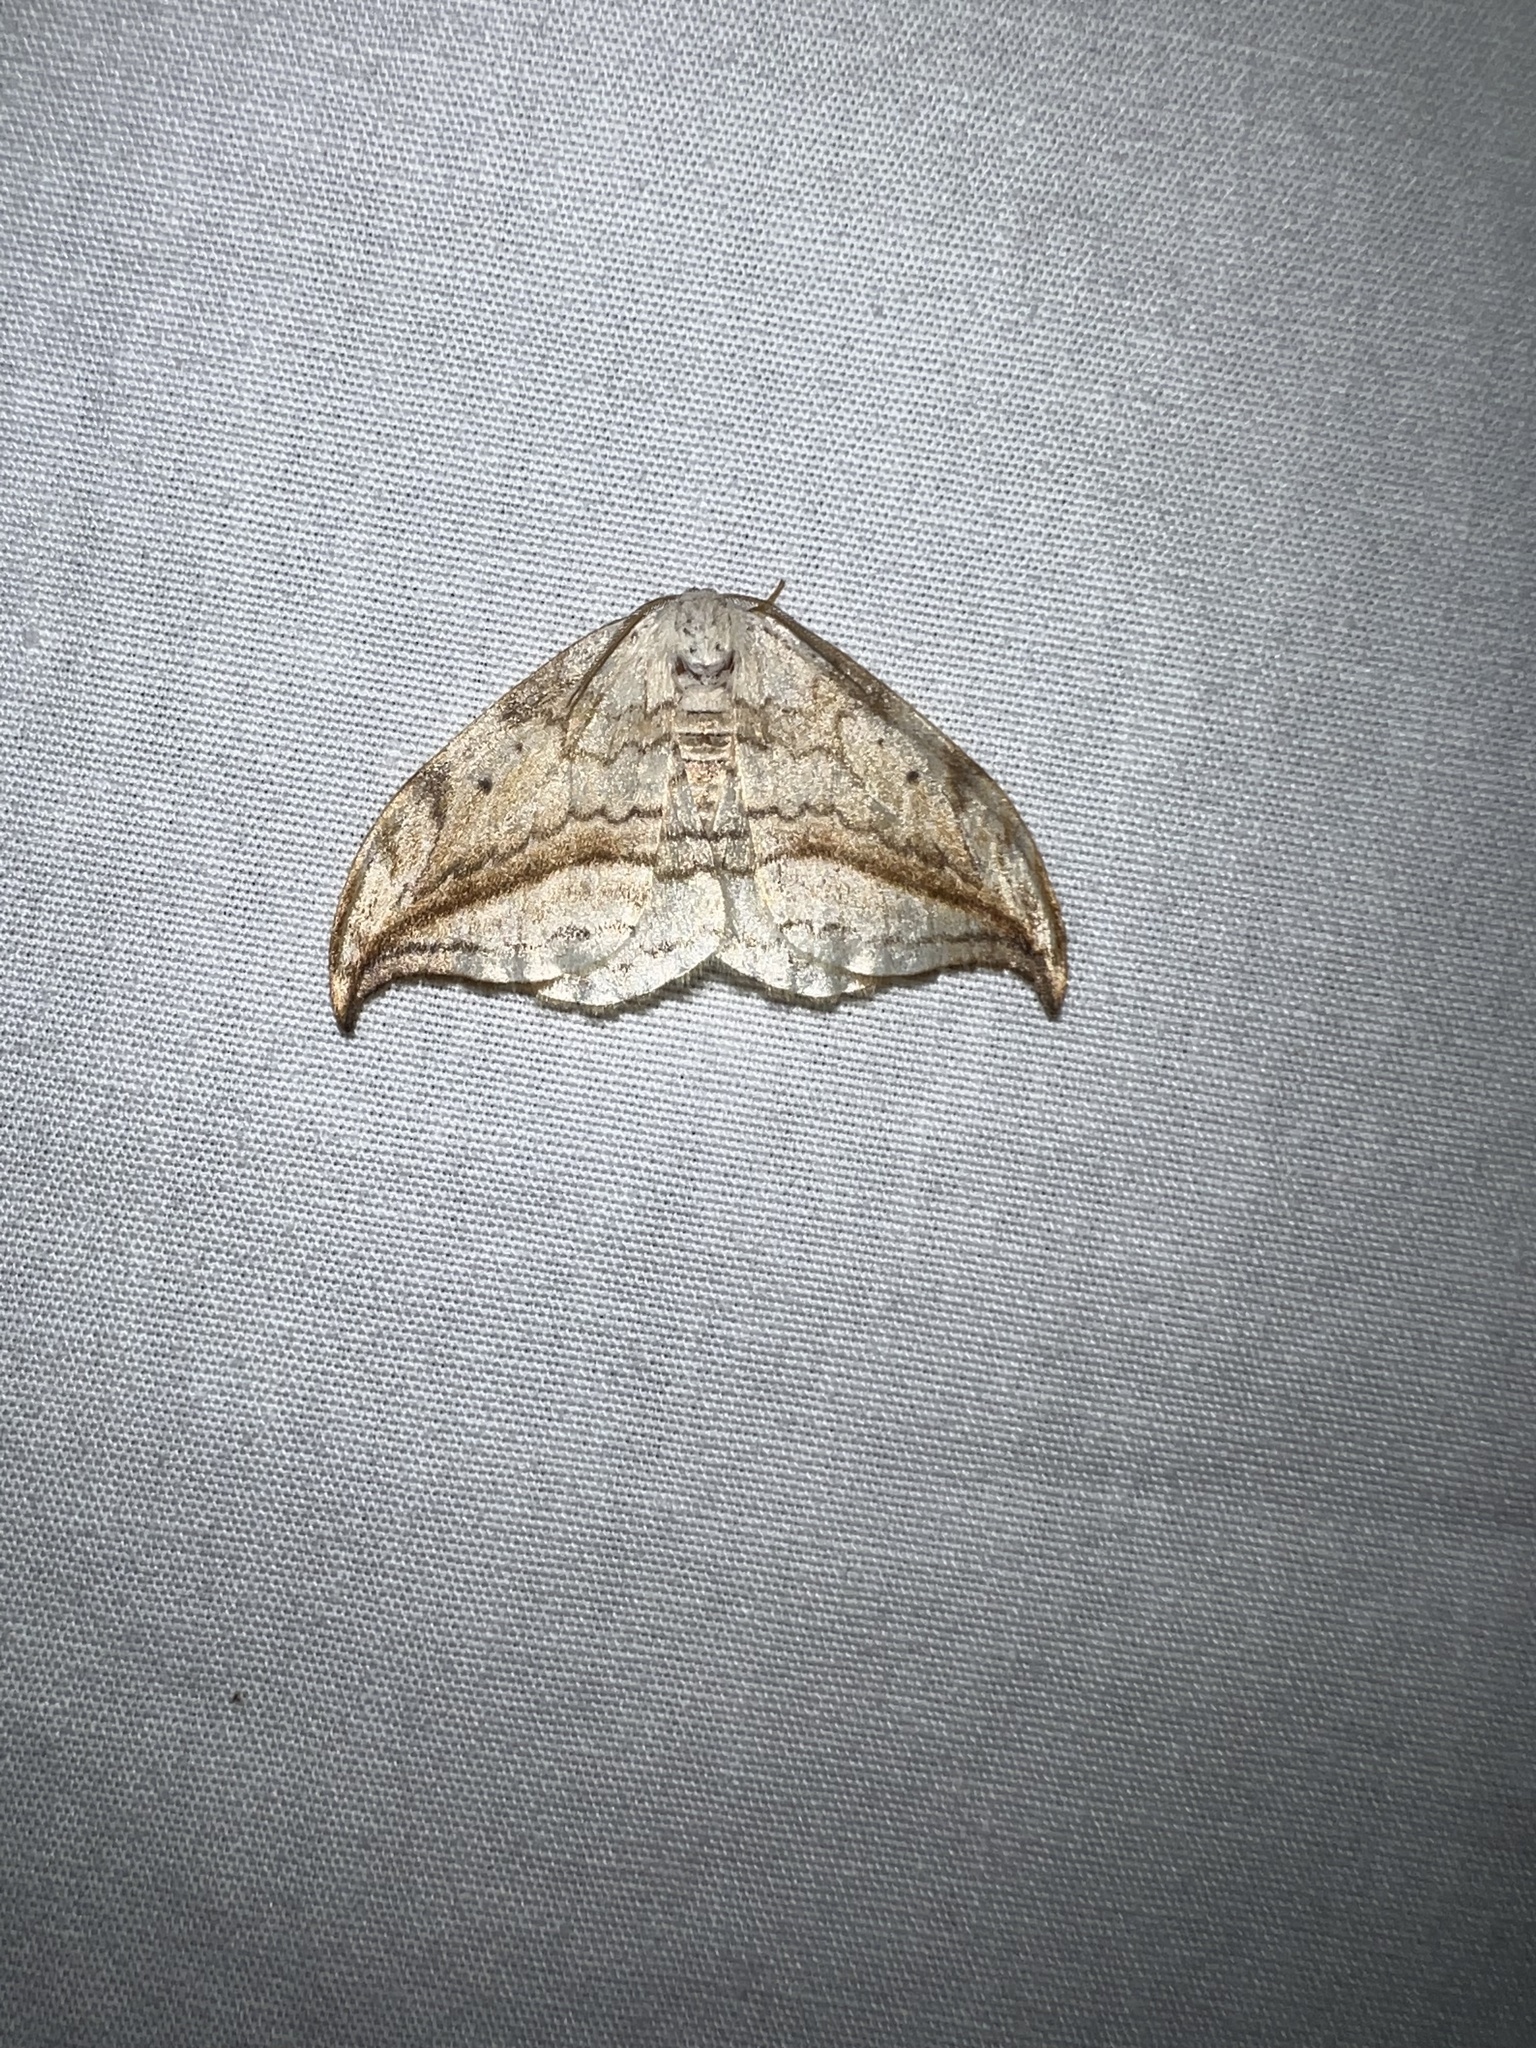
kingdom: Animalia
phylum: Arthropoda
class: Insecta
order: Lepidoptera
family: Drepanidae
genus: Drepana
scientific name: Drepana arcuata
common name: Arched hooktip moth
